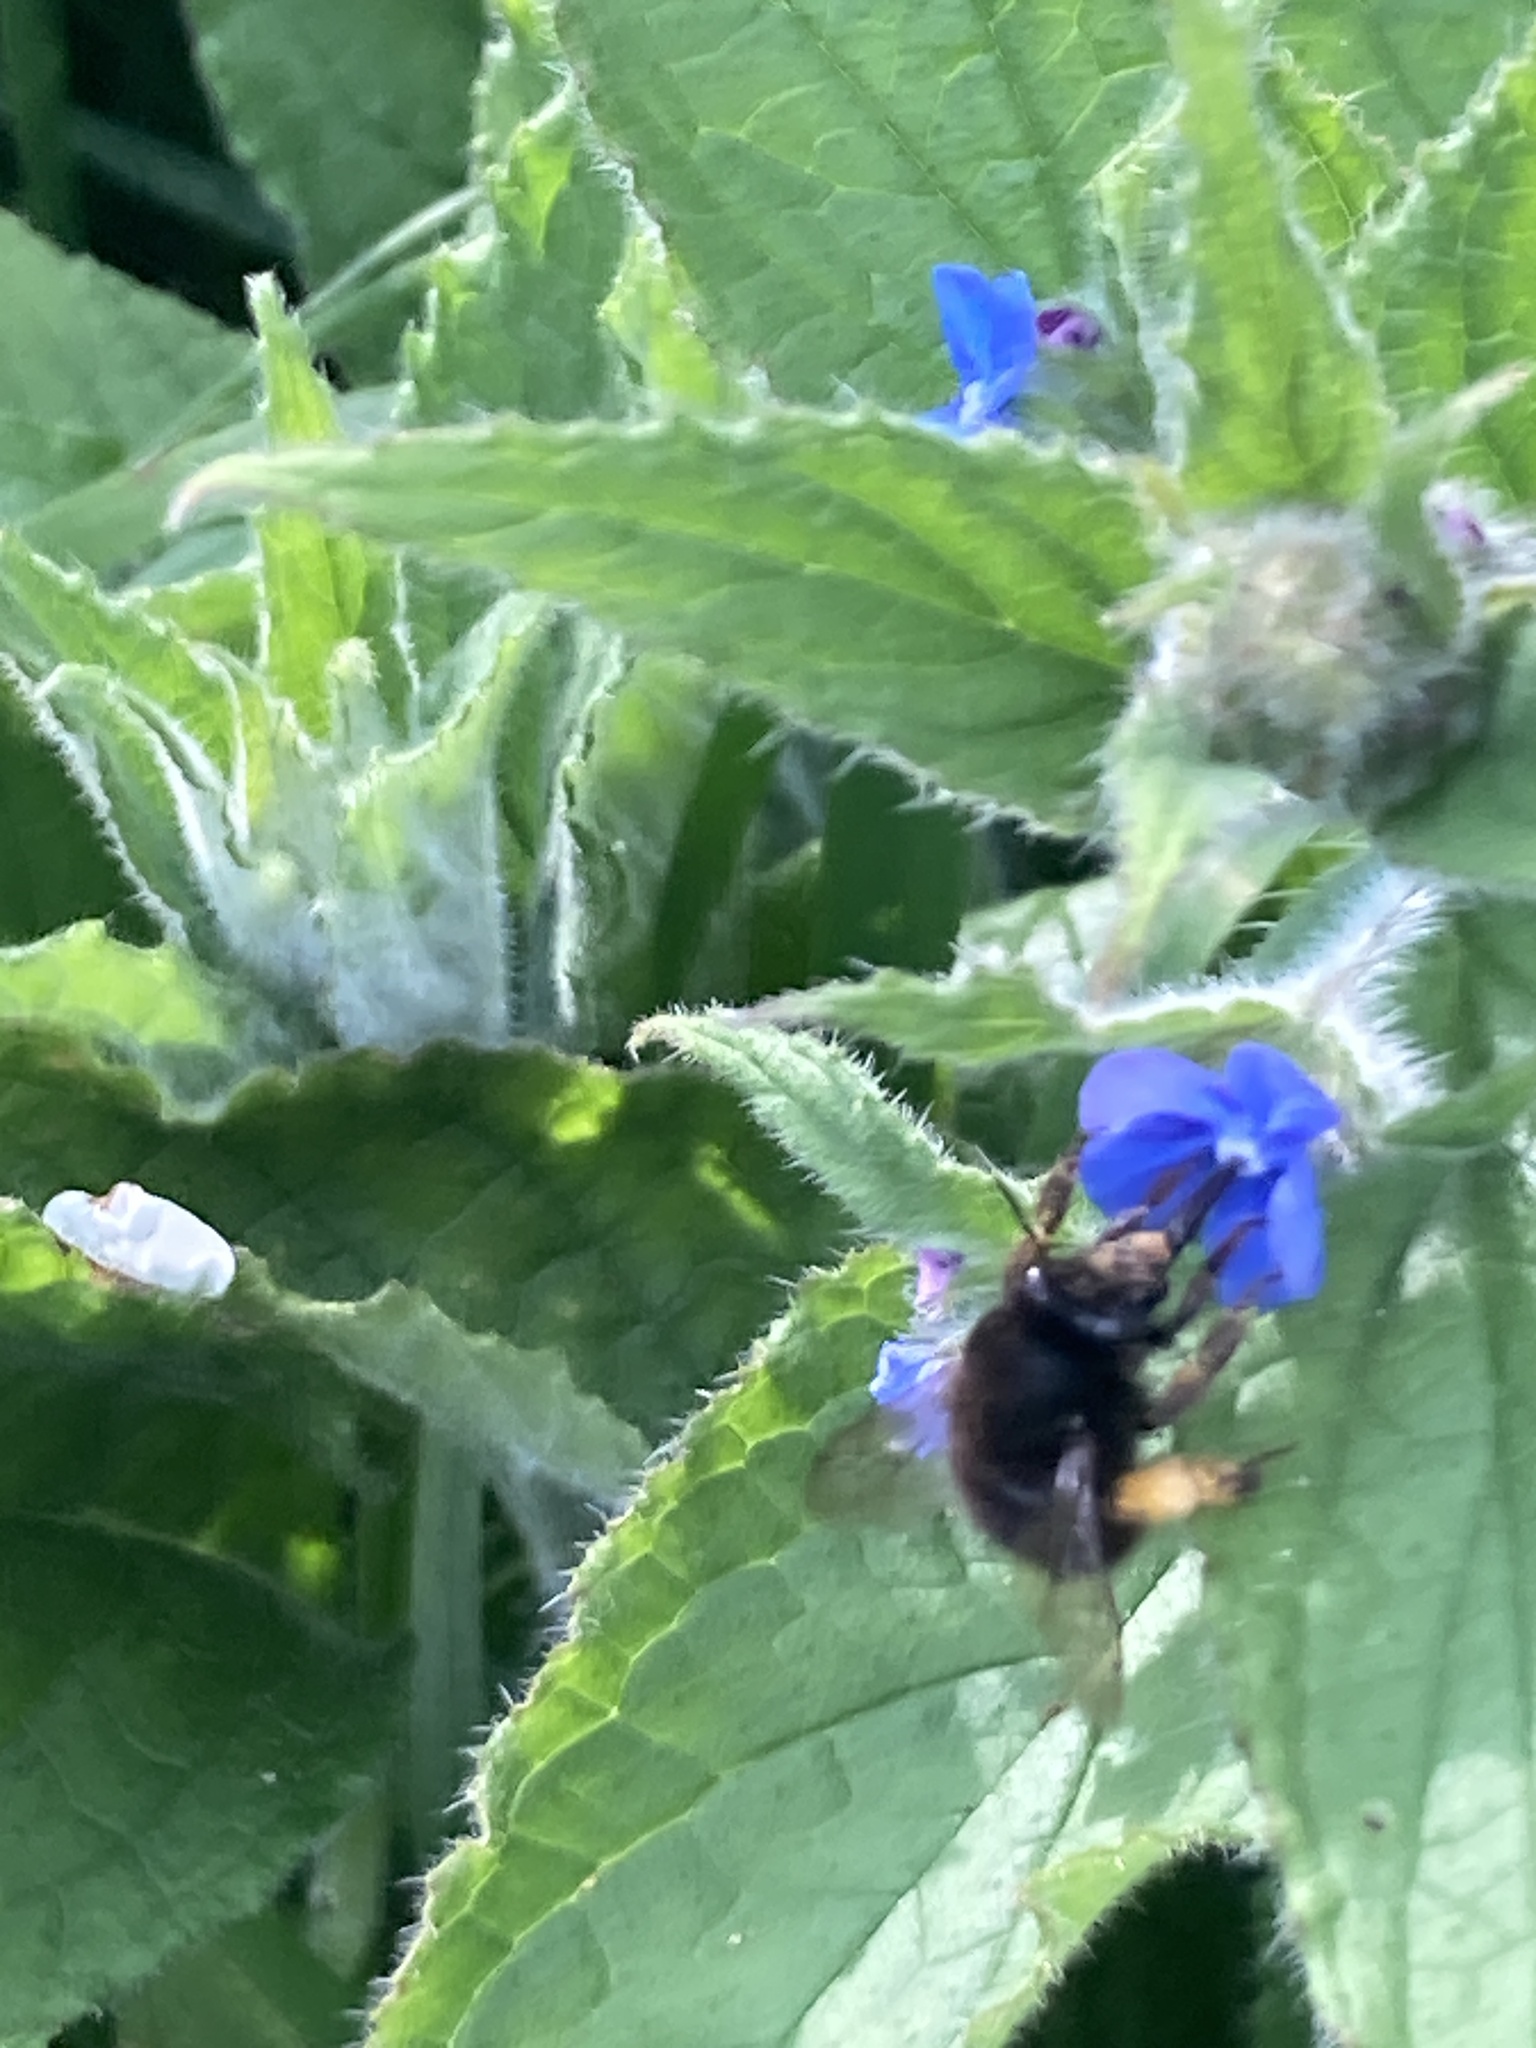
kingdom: Animalia
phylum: Arthropoda
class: Insecta
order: Hymenoptera
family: Apidae
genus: Anthophora
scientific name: Anthophora plumipes
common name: Hairy-footed flower bee
